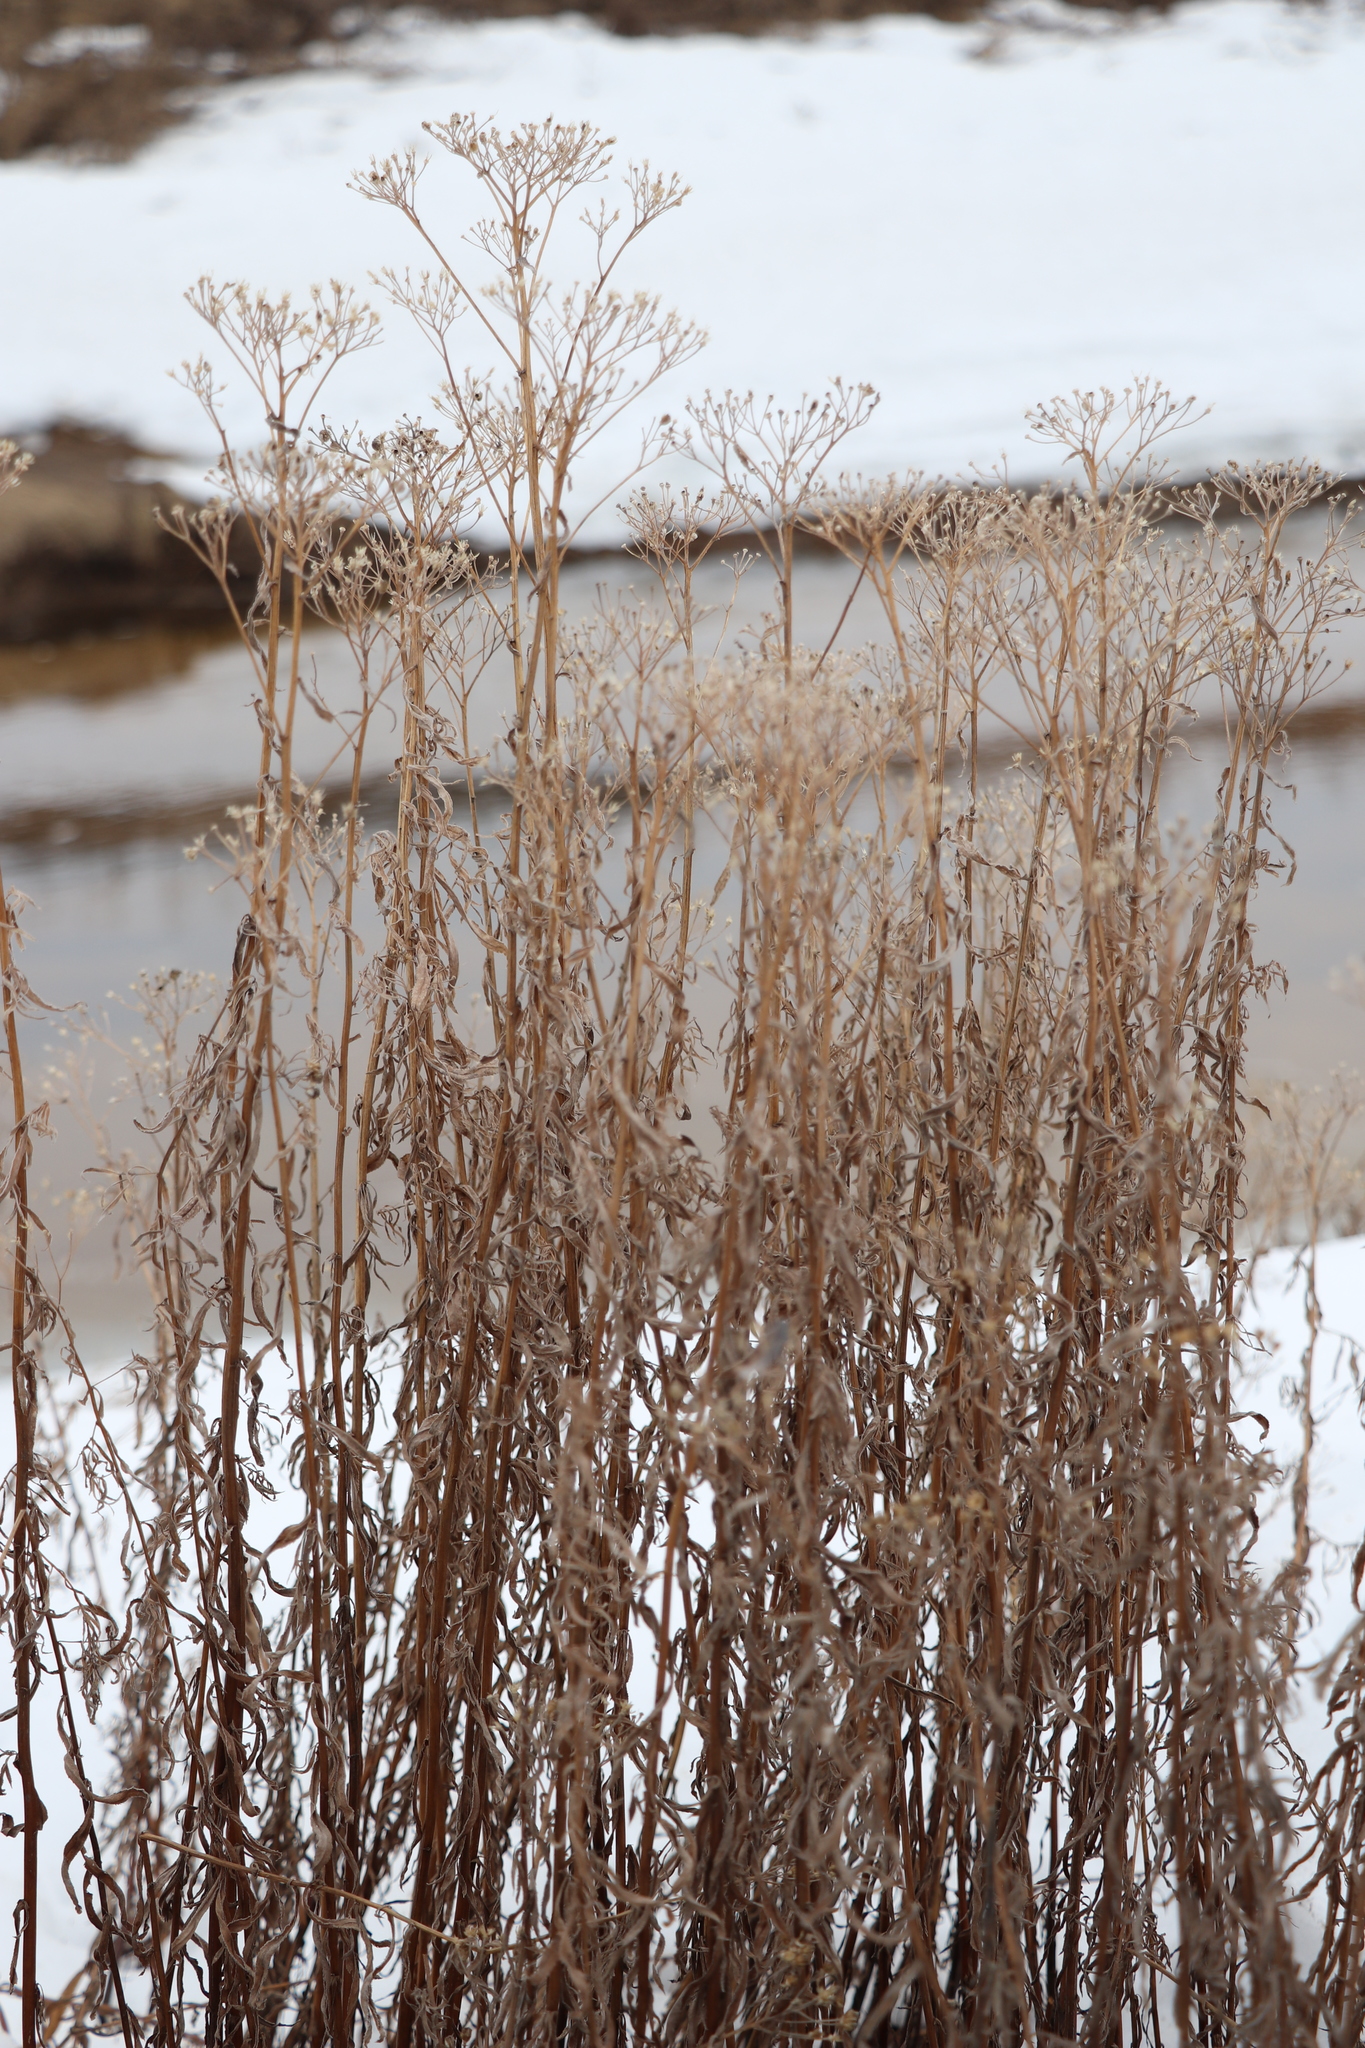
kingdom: Plantae
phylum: Tracheophyta
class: Magnoliopsida
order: Asterales
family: Asteraceae
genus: Achillea
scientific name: Achillea salicifolia
